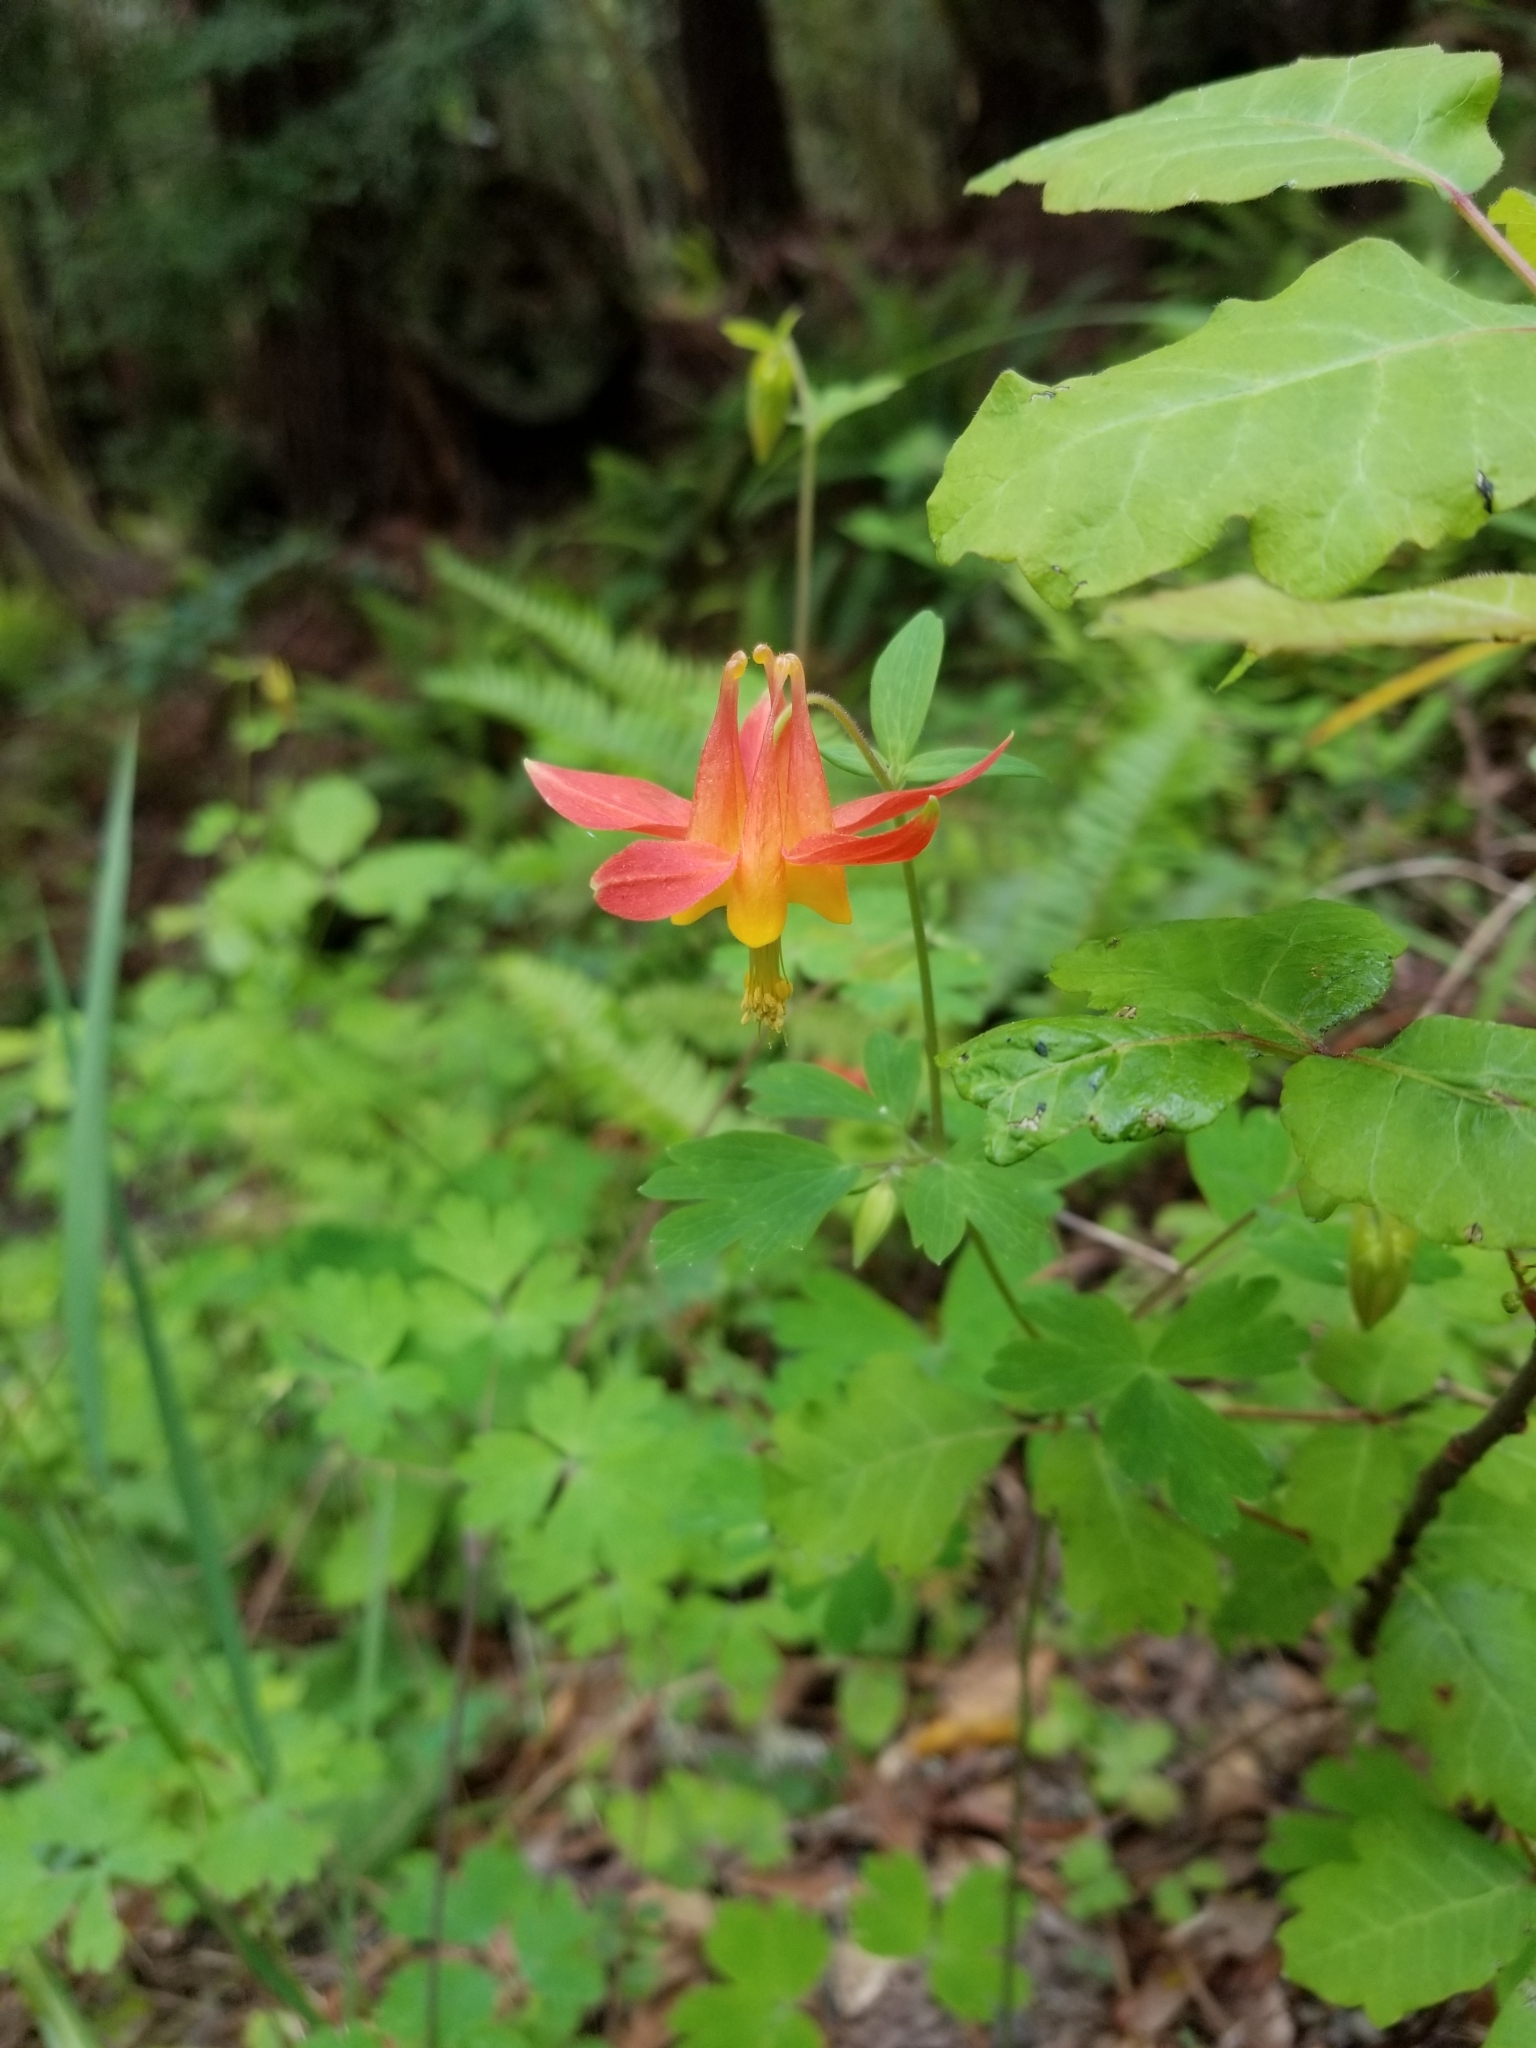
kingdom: Plantae
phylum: Tracheophyta
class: Magnoliopsida
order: Ranunculales
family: Ranunculaceae
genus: Aquilegia
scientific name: Aquilegia formosa
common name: Sitka columbine
